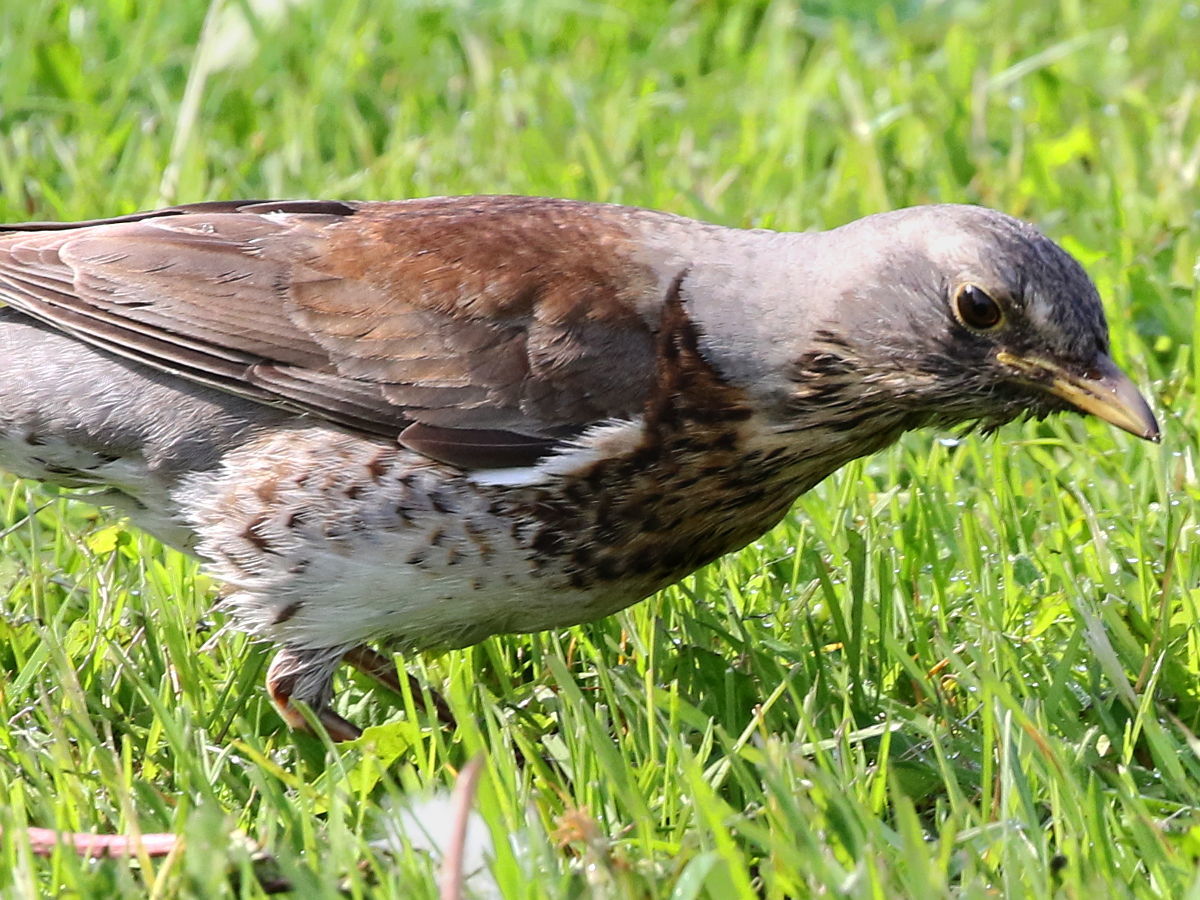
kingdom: Animalia
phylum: Chordata
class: Aves
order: Passeriformes
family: Turdidae
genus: Turdus
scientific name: Turdus pilaris
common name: Fieldfare
